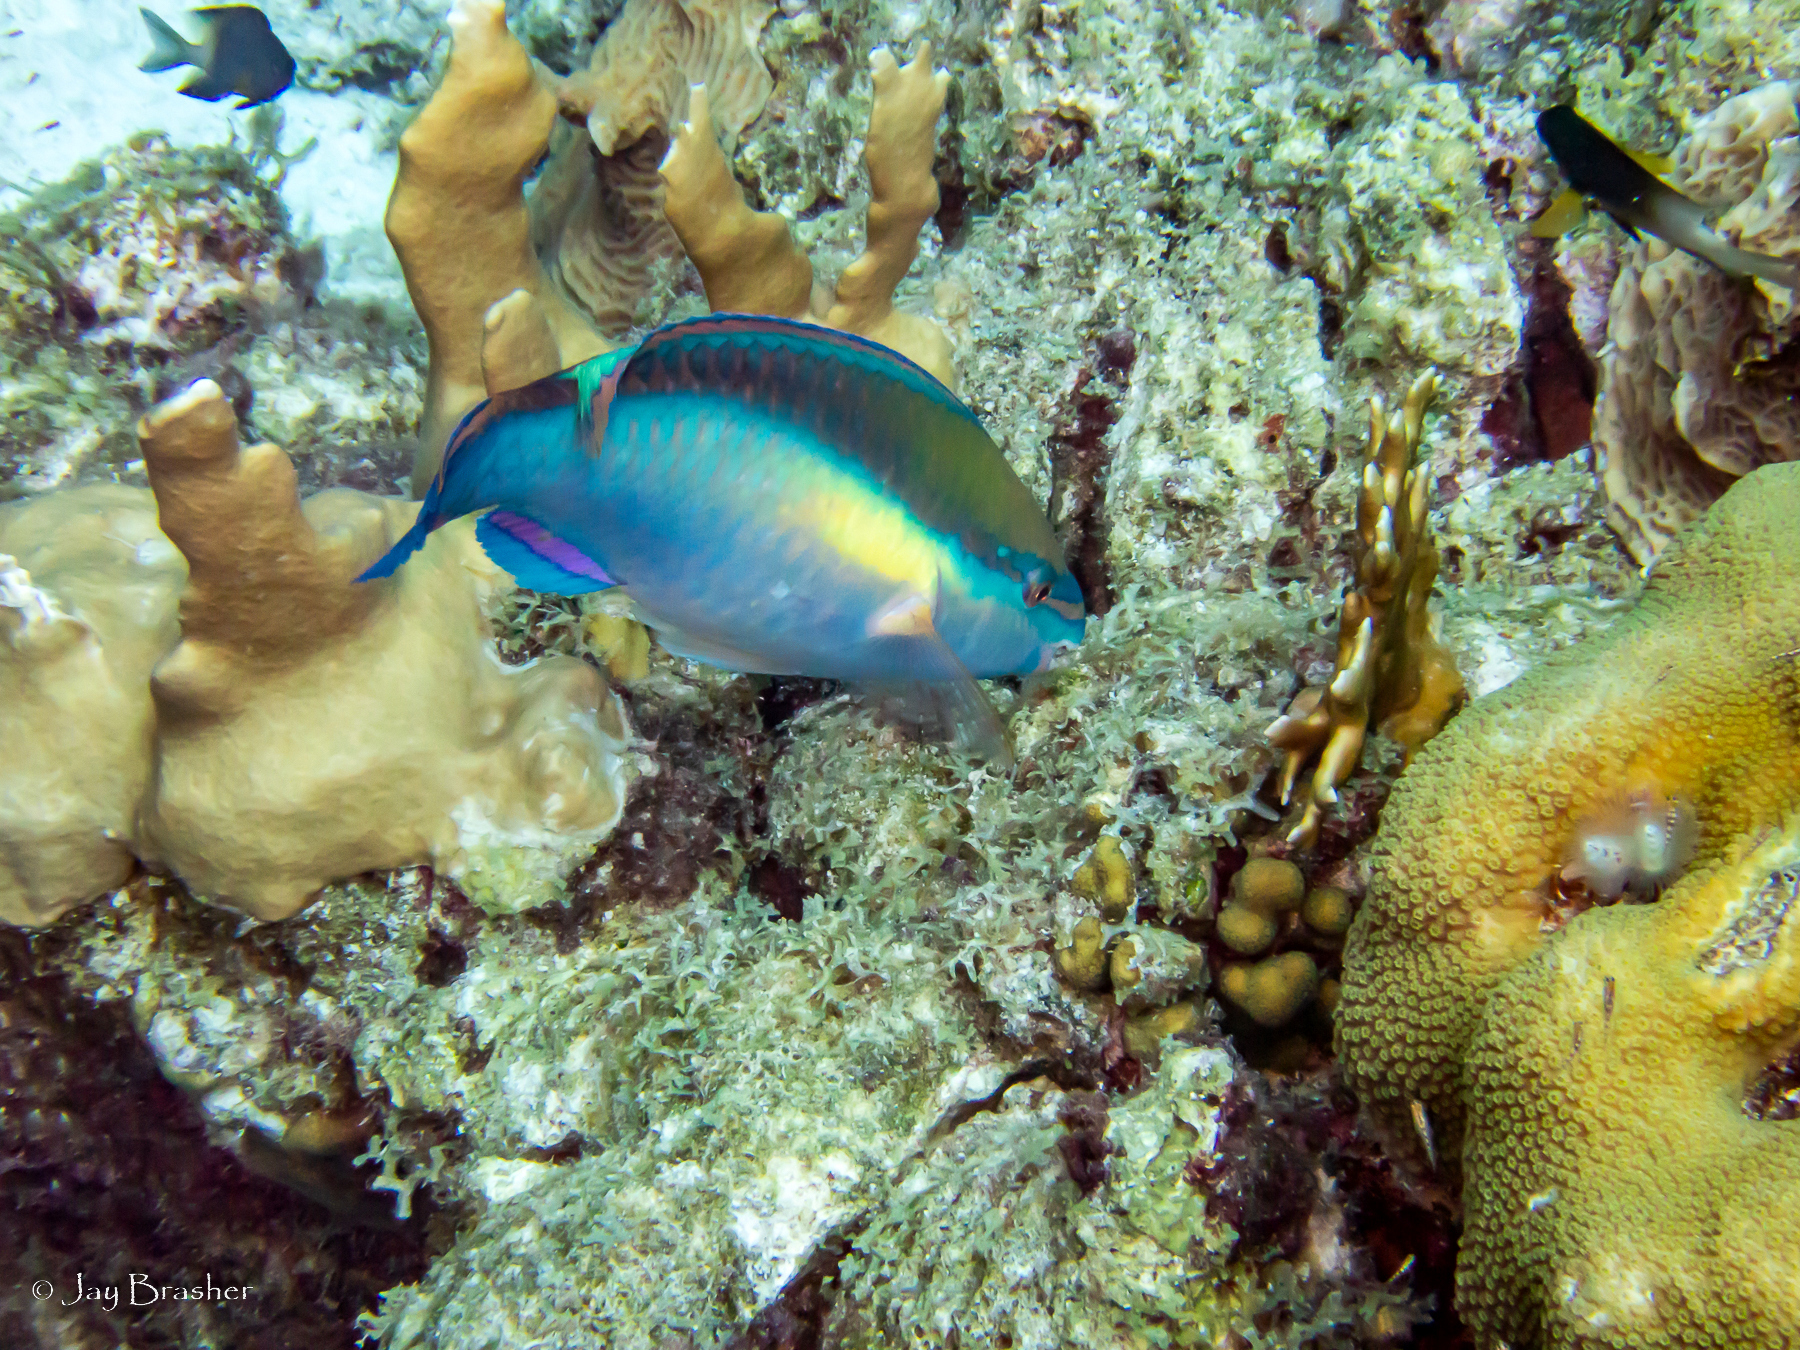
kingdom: Animalia
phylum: Chordata
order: Perciformes
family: Scaridae
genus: Scarus
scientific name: Scarus taeniopterus
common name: Princess parrotfish
